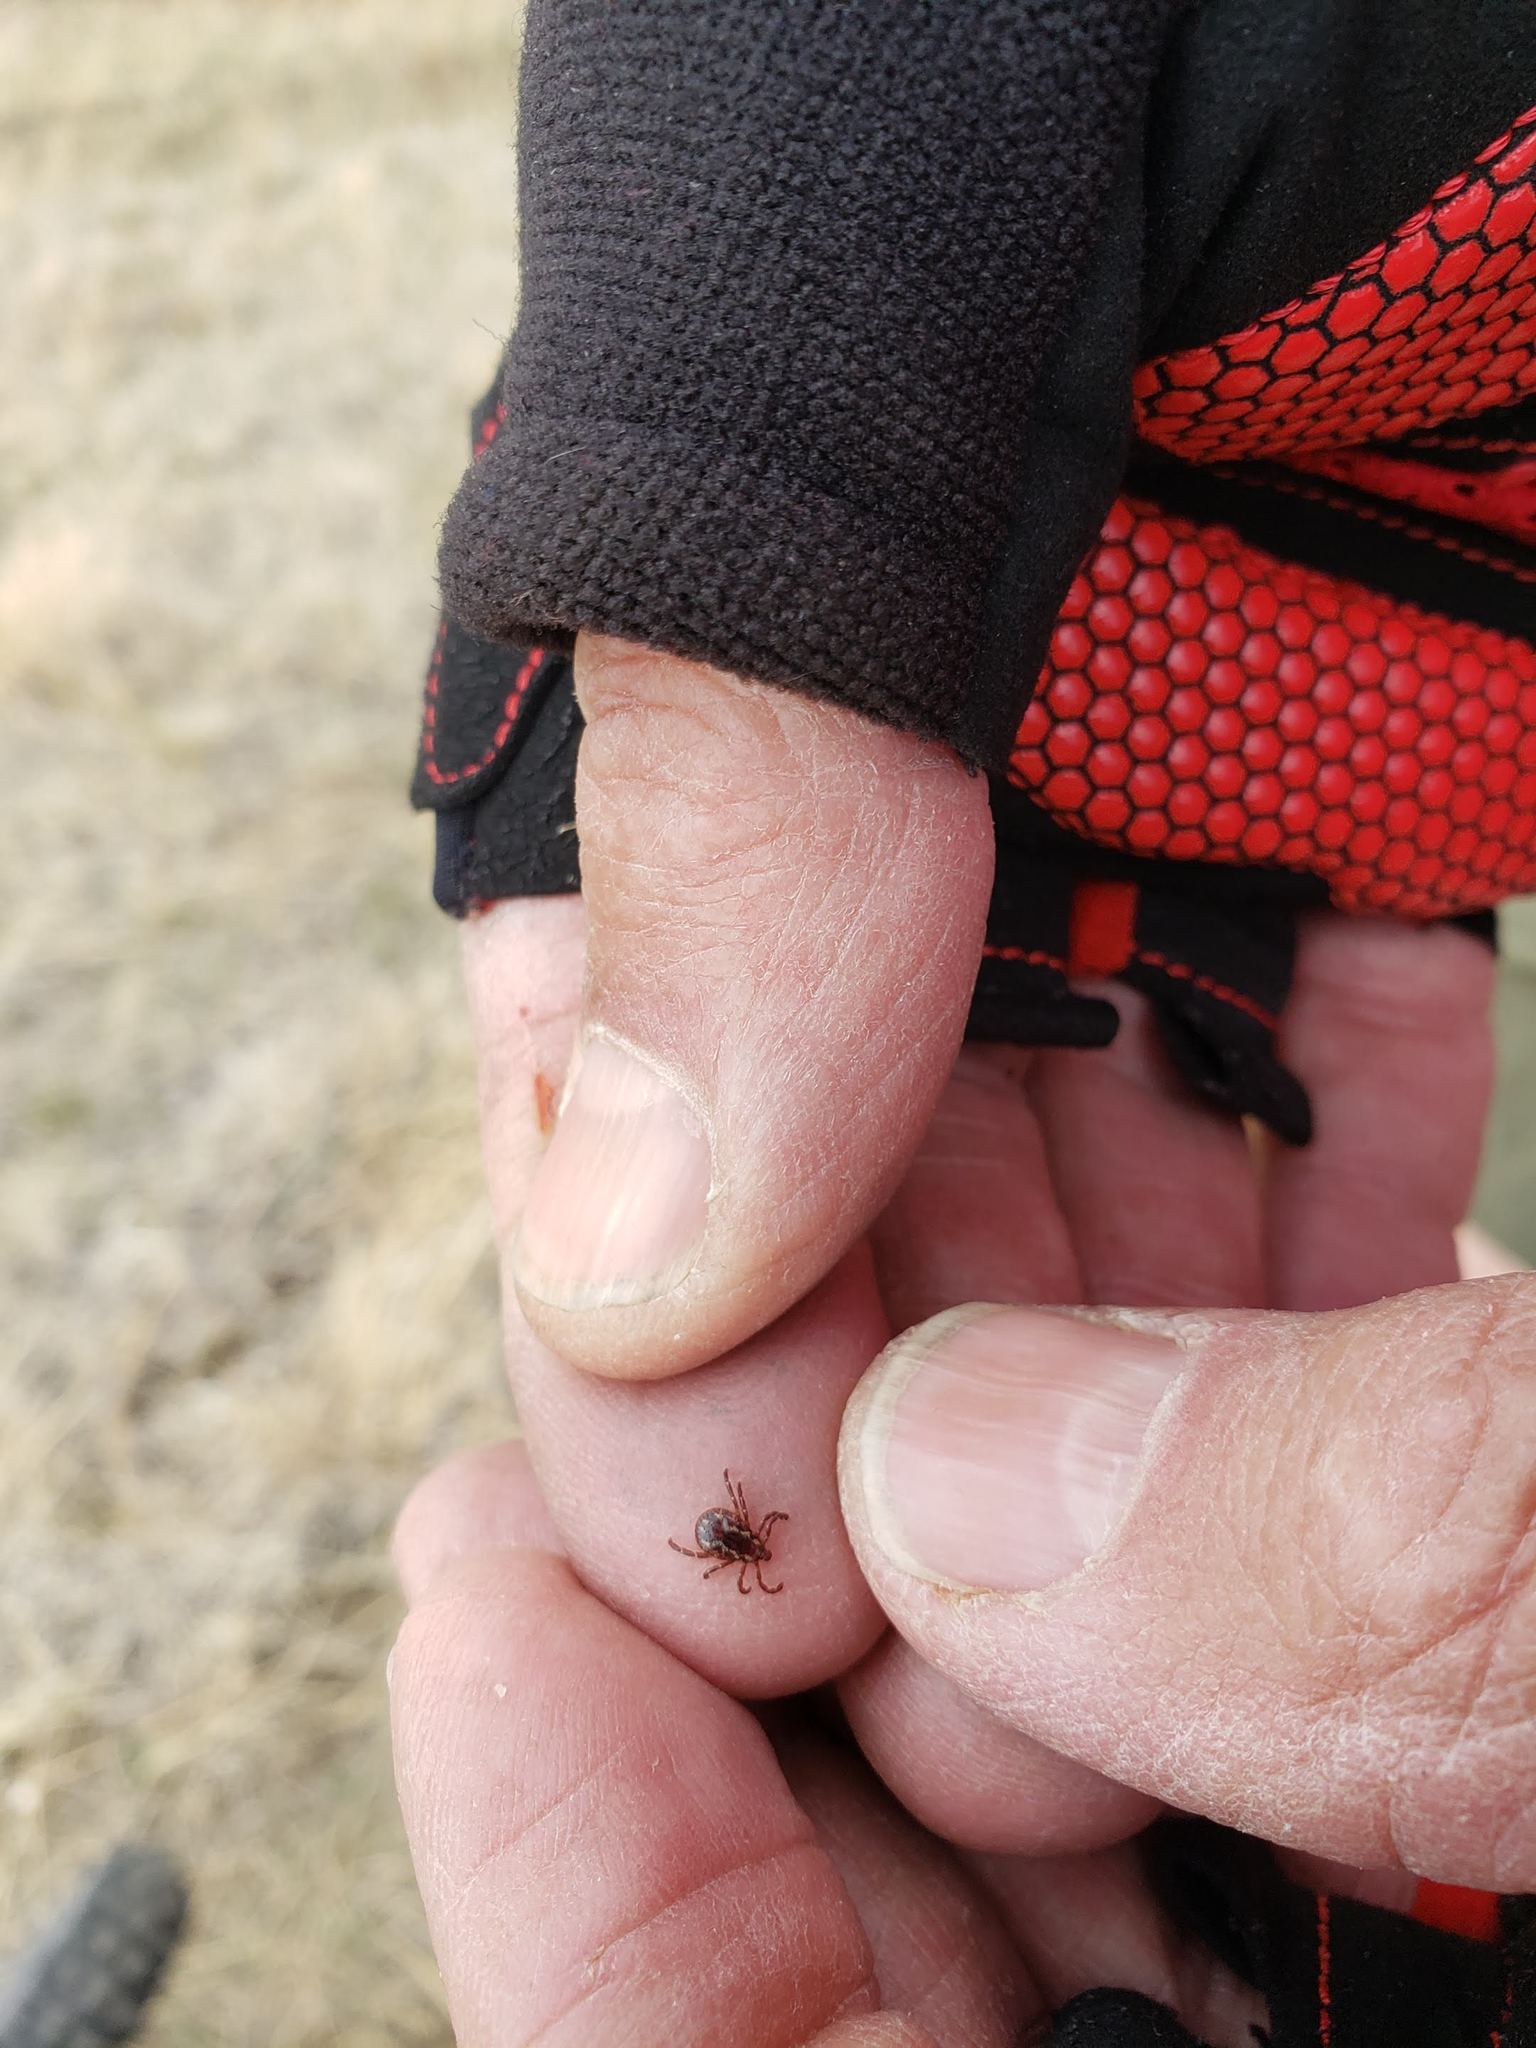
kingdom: Animalia
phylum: Arthropoda
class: Arachnida
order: Ixodida
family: Ixodidae
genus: Dermacentor
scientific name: Dermacentor variabilis
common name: American dog tick
